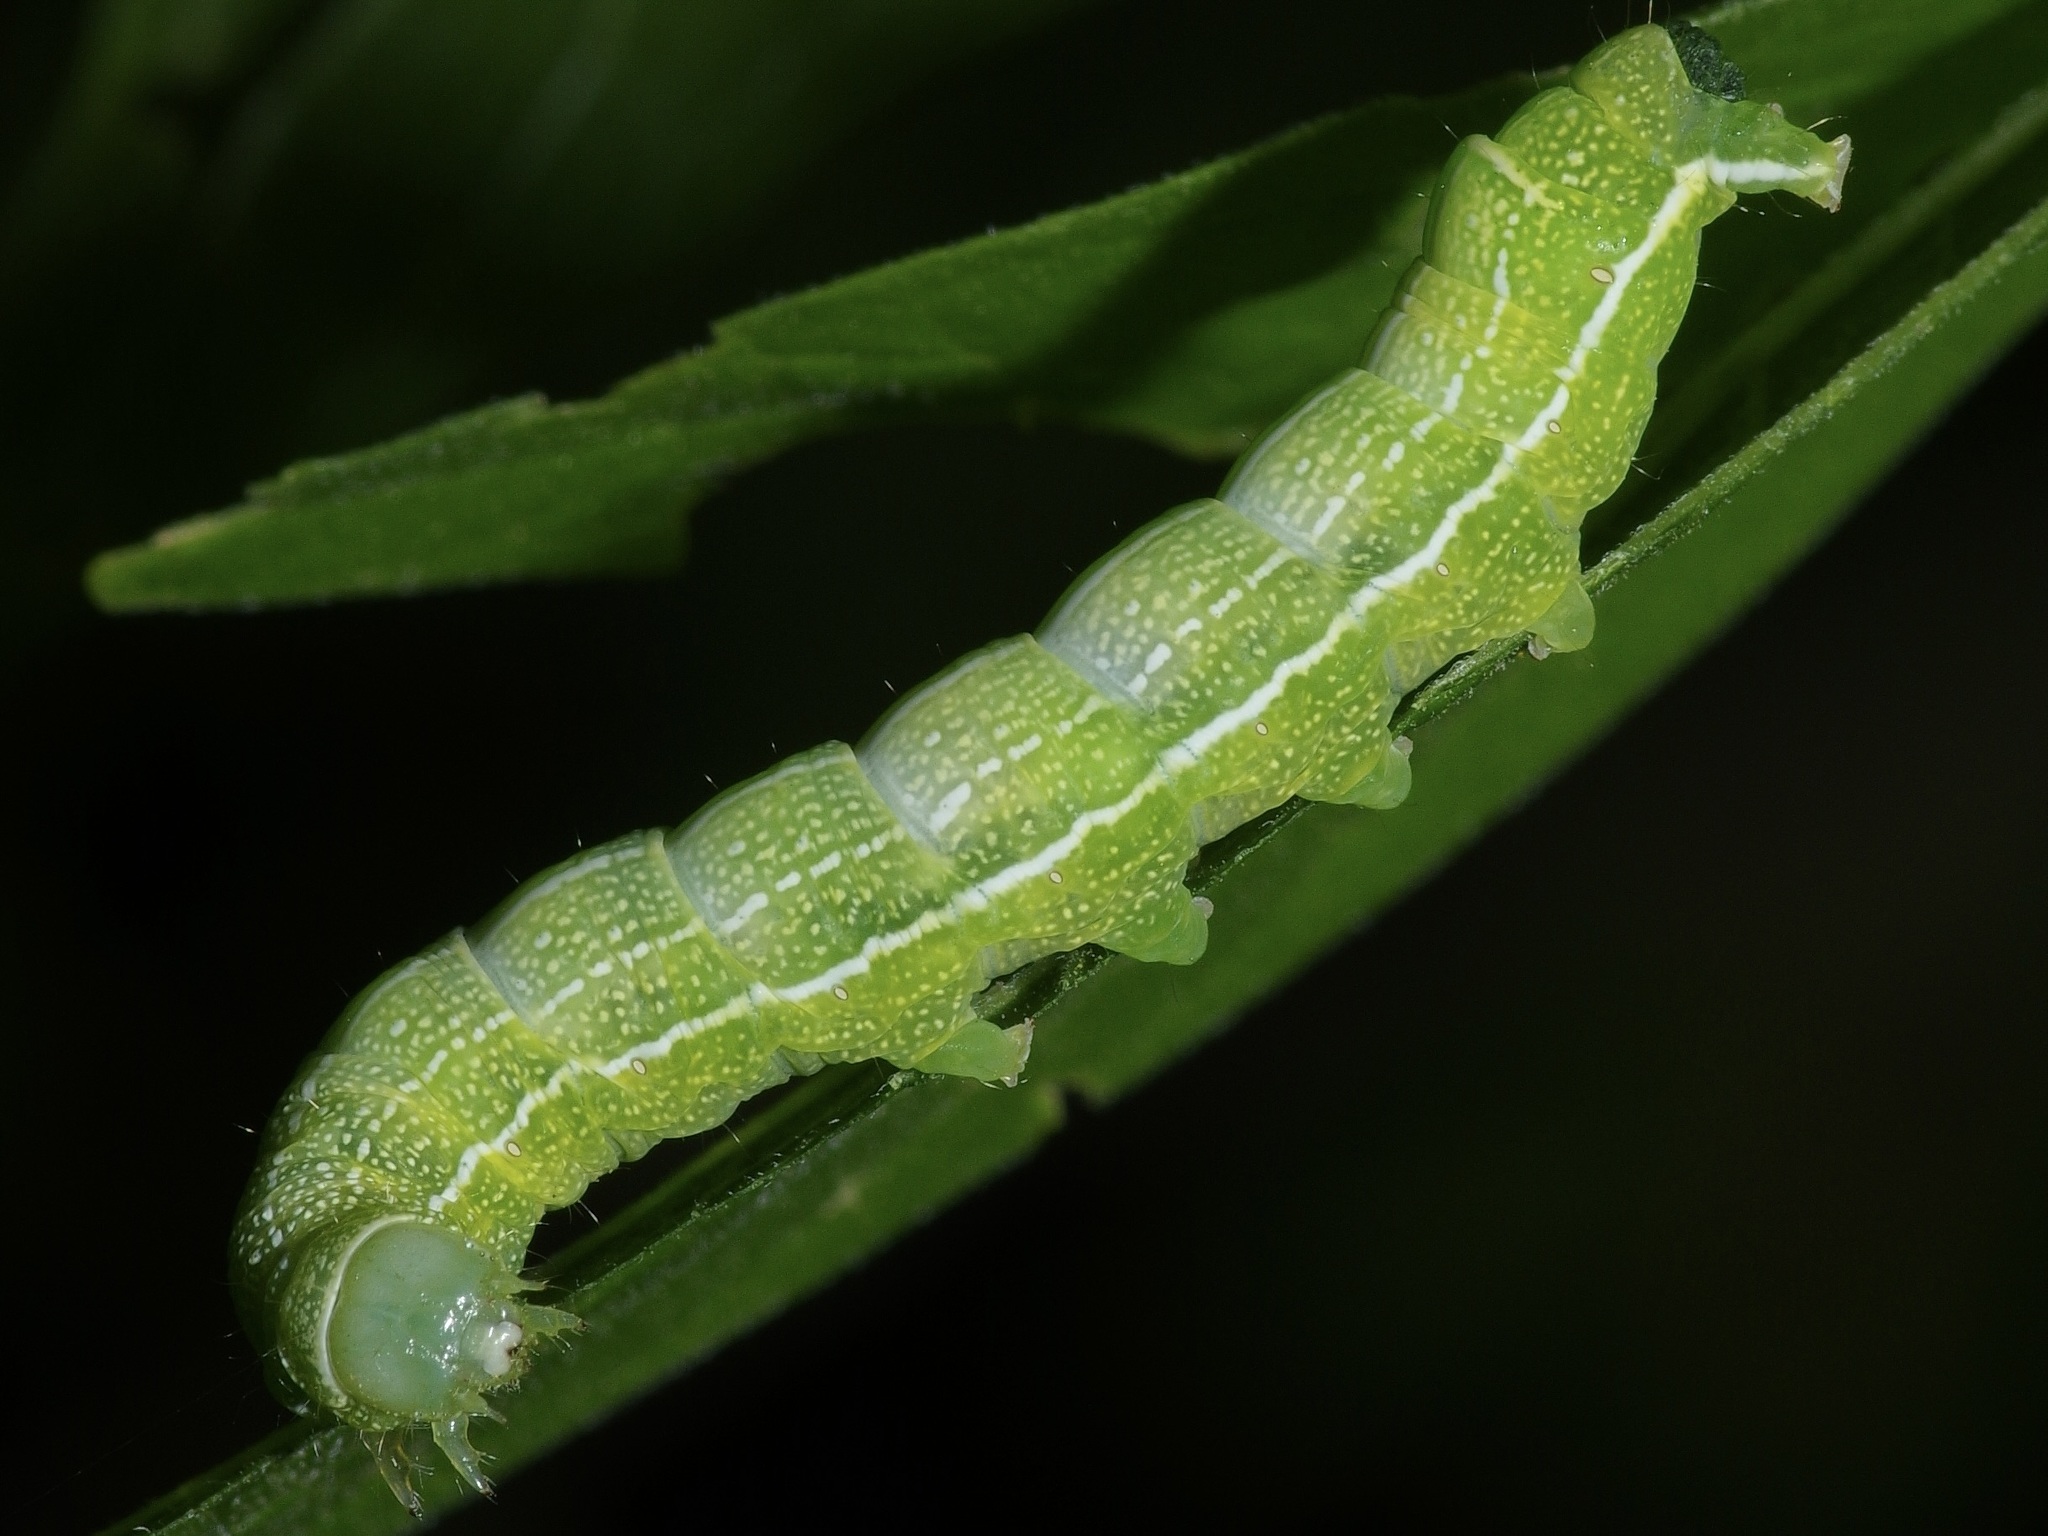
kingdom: Animalia
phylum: Arthropoda
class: Insecta
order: Lepidoptera
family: Noctuidae
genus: Orthosia
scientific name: Orthosia hibisci
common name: Green fruitworm
